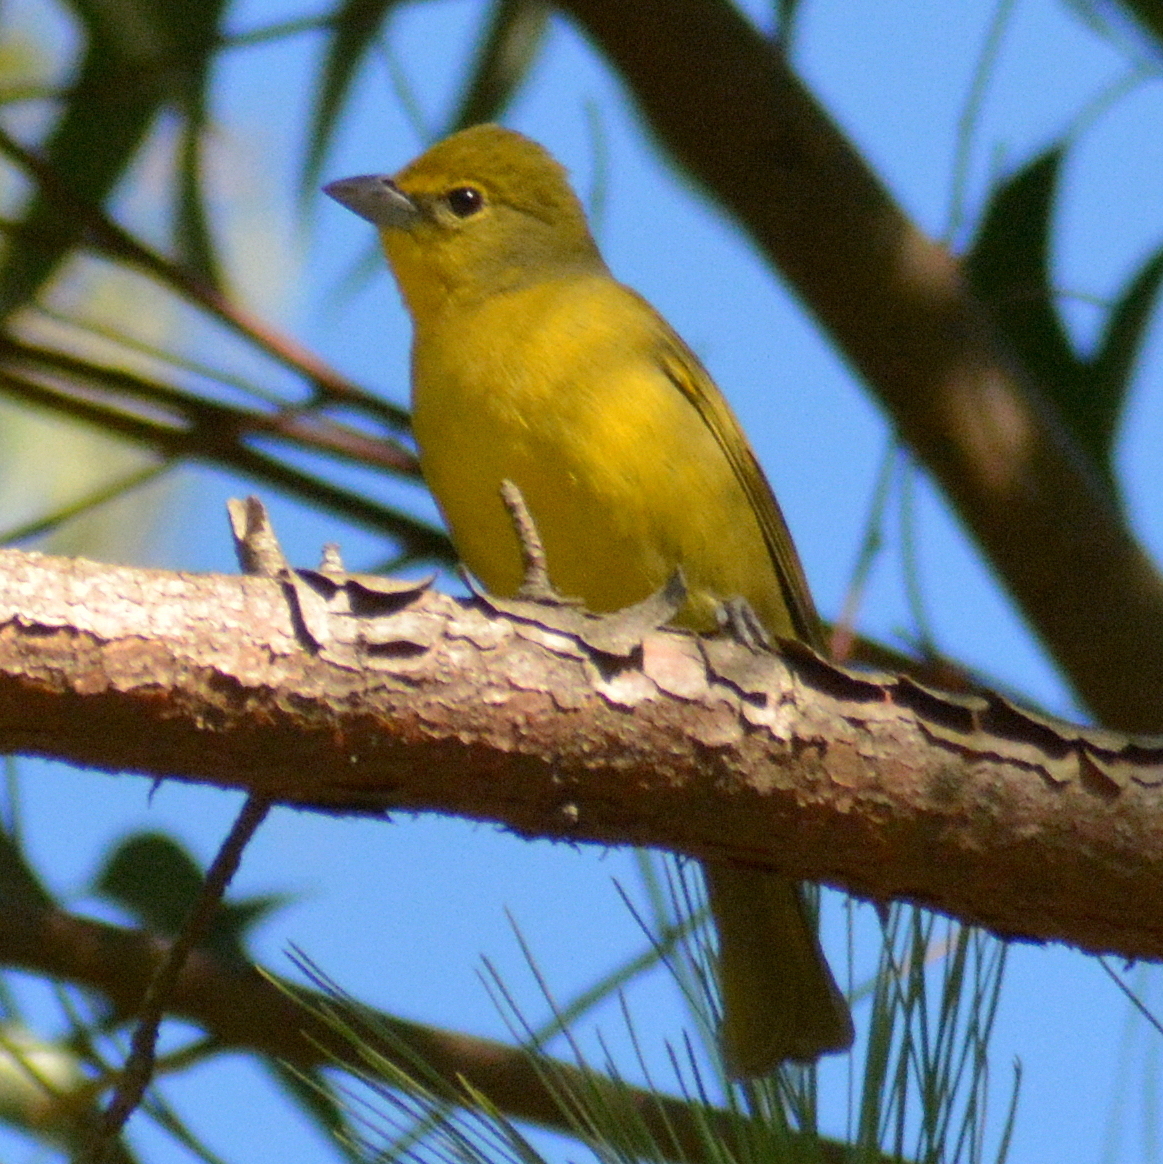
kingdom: Animalia
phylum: Chordata
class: Aves
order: Passeriformes
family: Cardinalidae
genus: Piranga
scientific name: Piranga flava
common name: Red tanager
